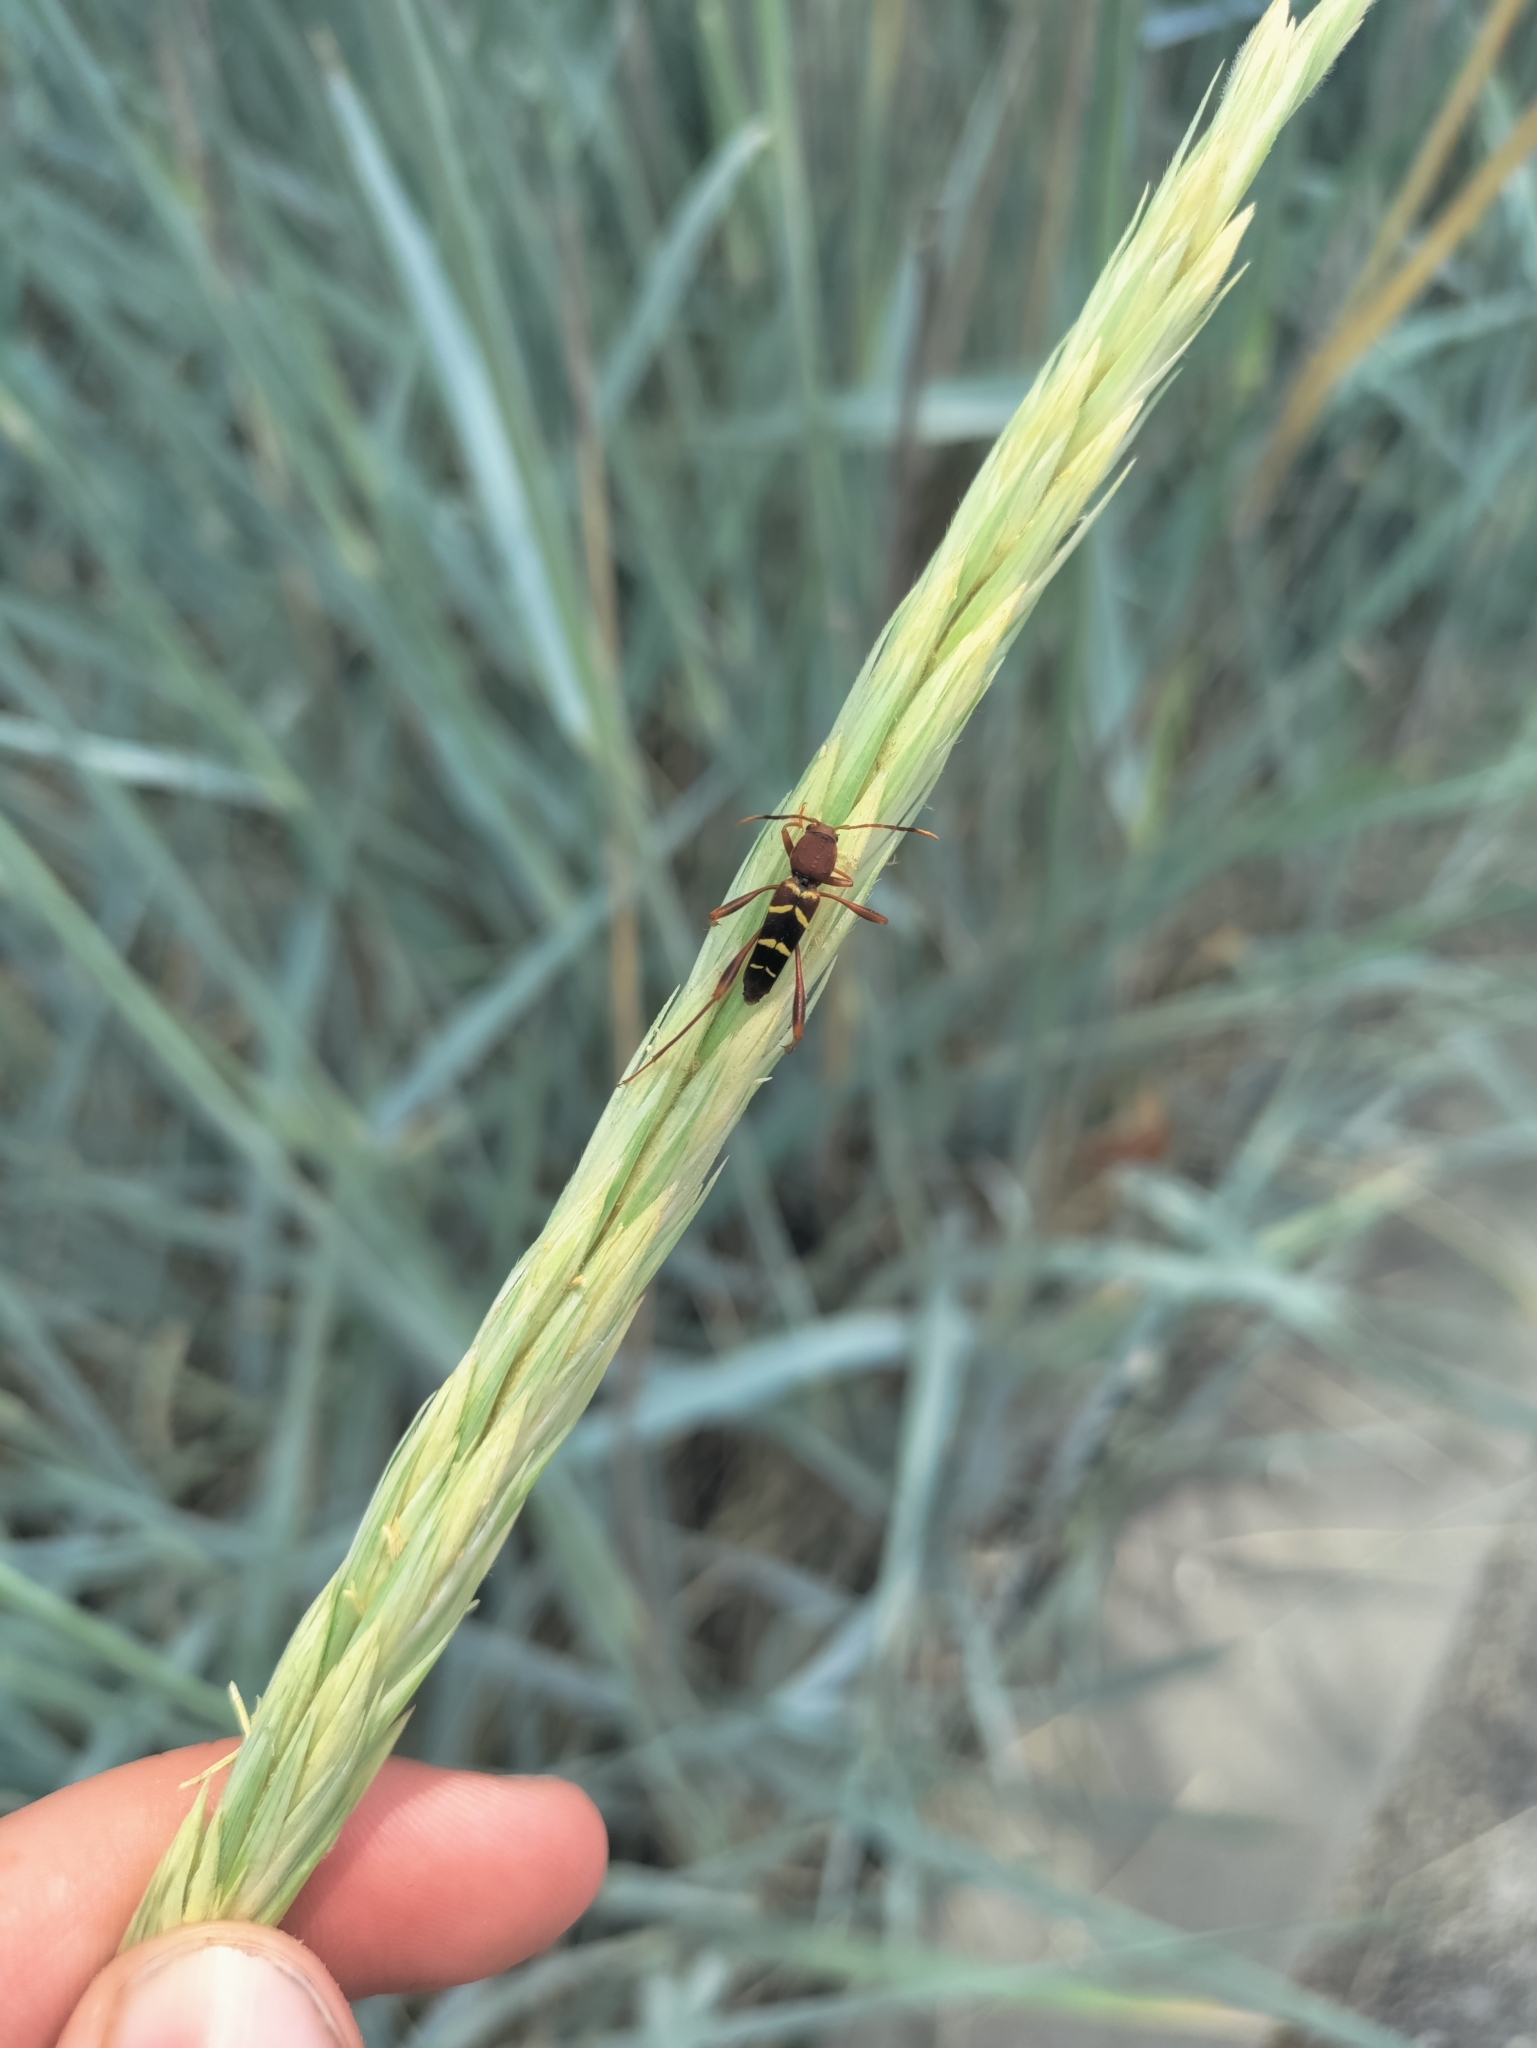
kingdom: Animalia
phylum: Arthropoda
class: Insecta
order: Coleoptera
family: Cerambycidae
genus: Neoclytus
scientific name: Neoclytus acuminatus
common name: Read-headed ash borer
